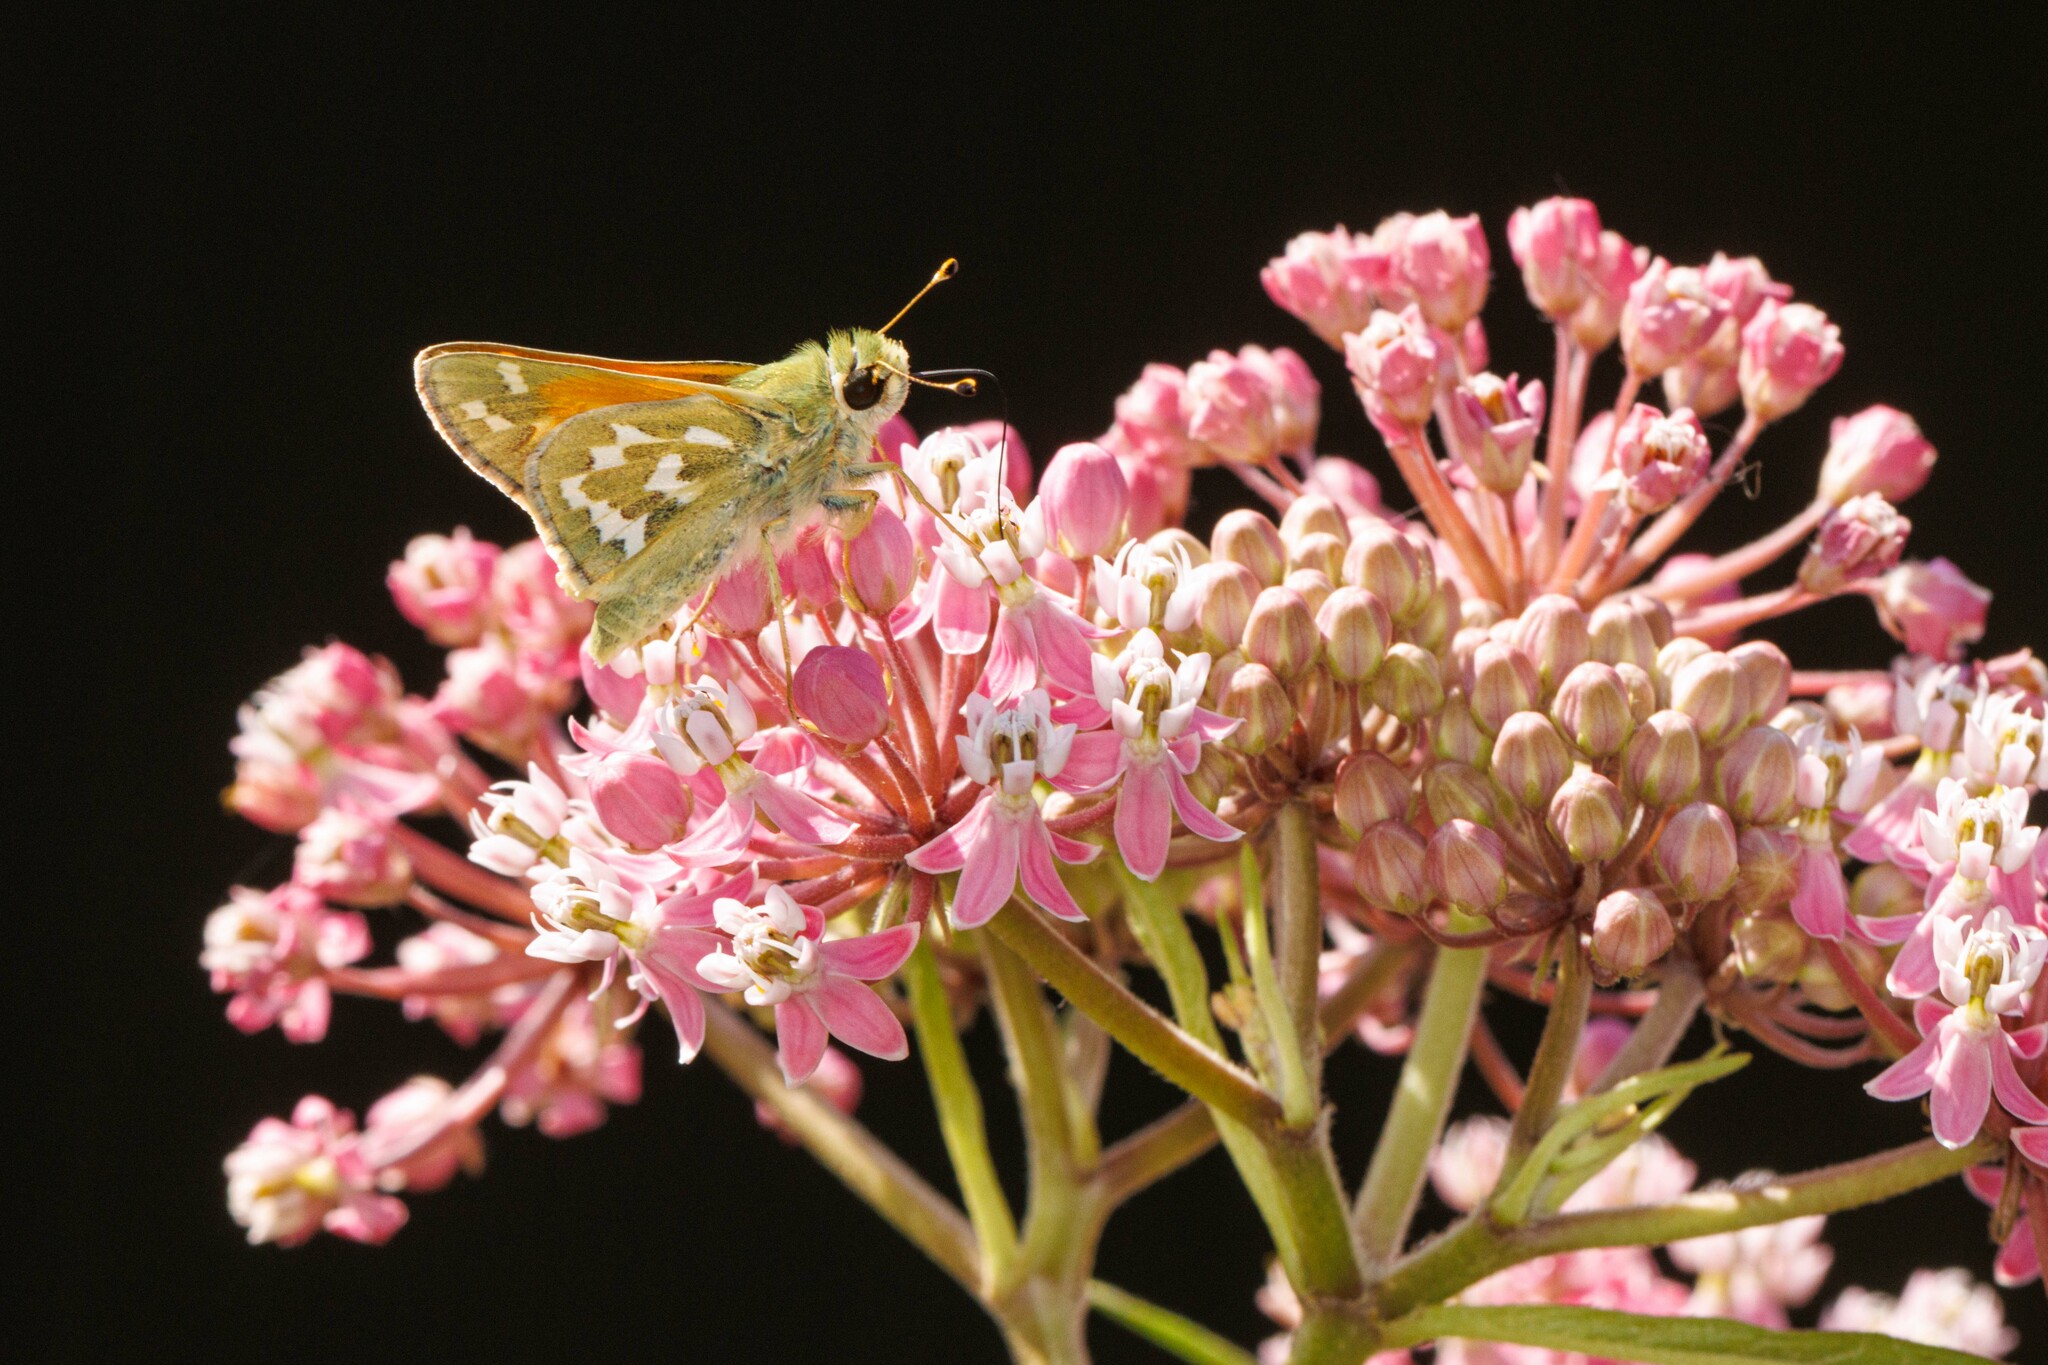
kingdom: Animalia
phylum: Arthropoda
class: Insecta
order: Lepidoptera
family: Hesperiidae
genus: Hesperia
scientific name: Hesperia comma
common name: Common branded skipper
